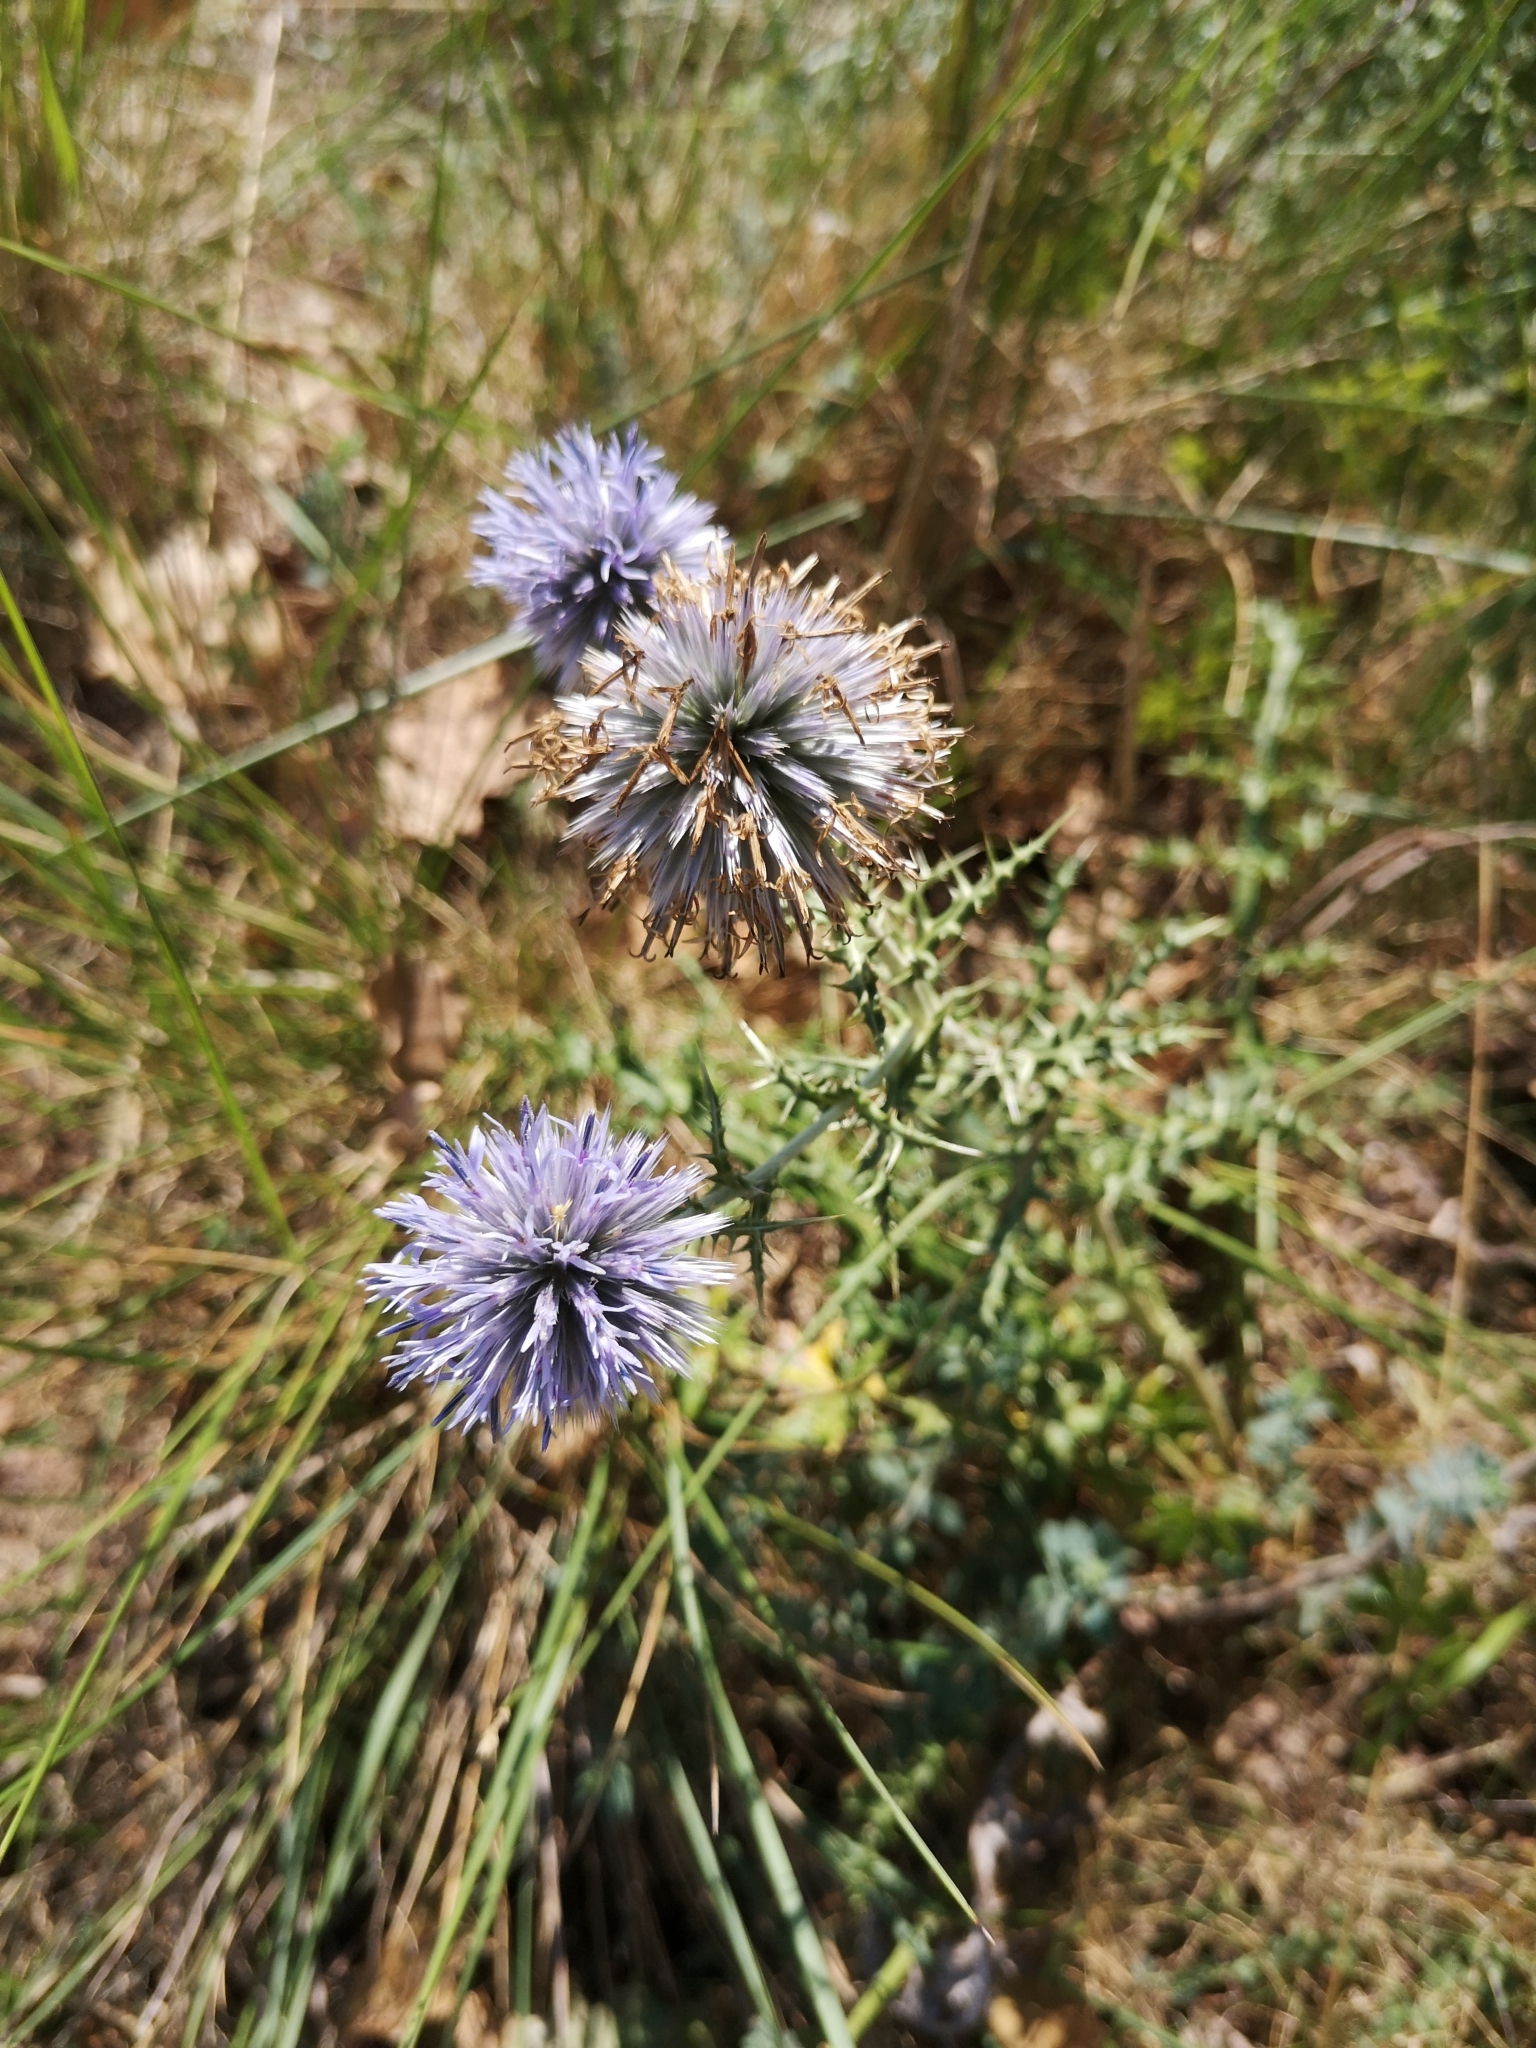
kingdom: Plantae
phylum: Tracheophyta
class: Magnoliopsida
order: Asterales
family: Asteraceae
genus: Echinops
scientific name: Echinops ritro
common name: Globe thistle
